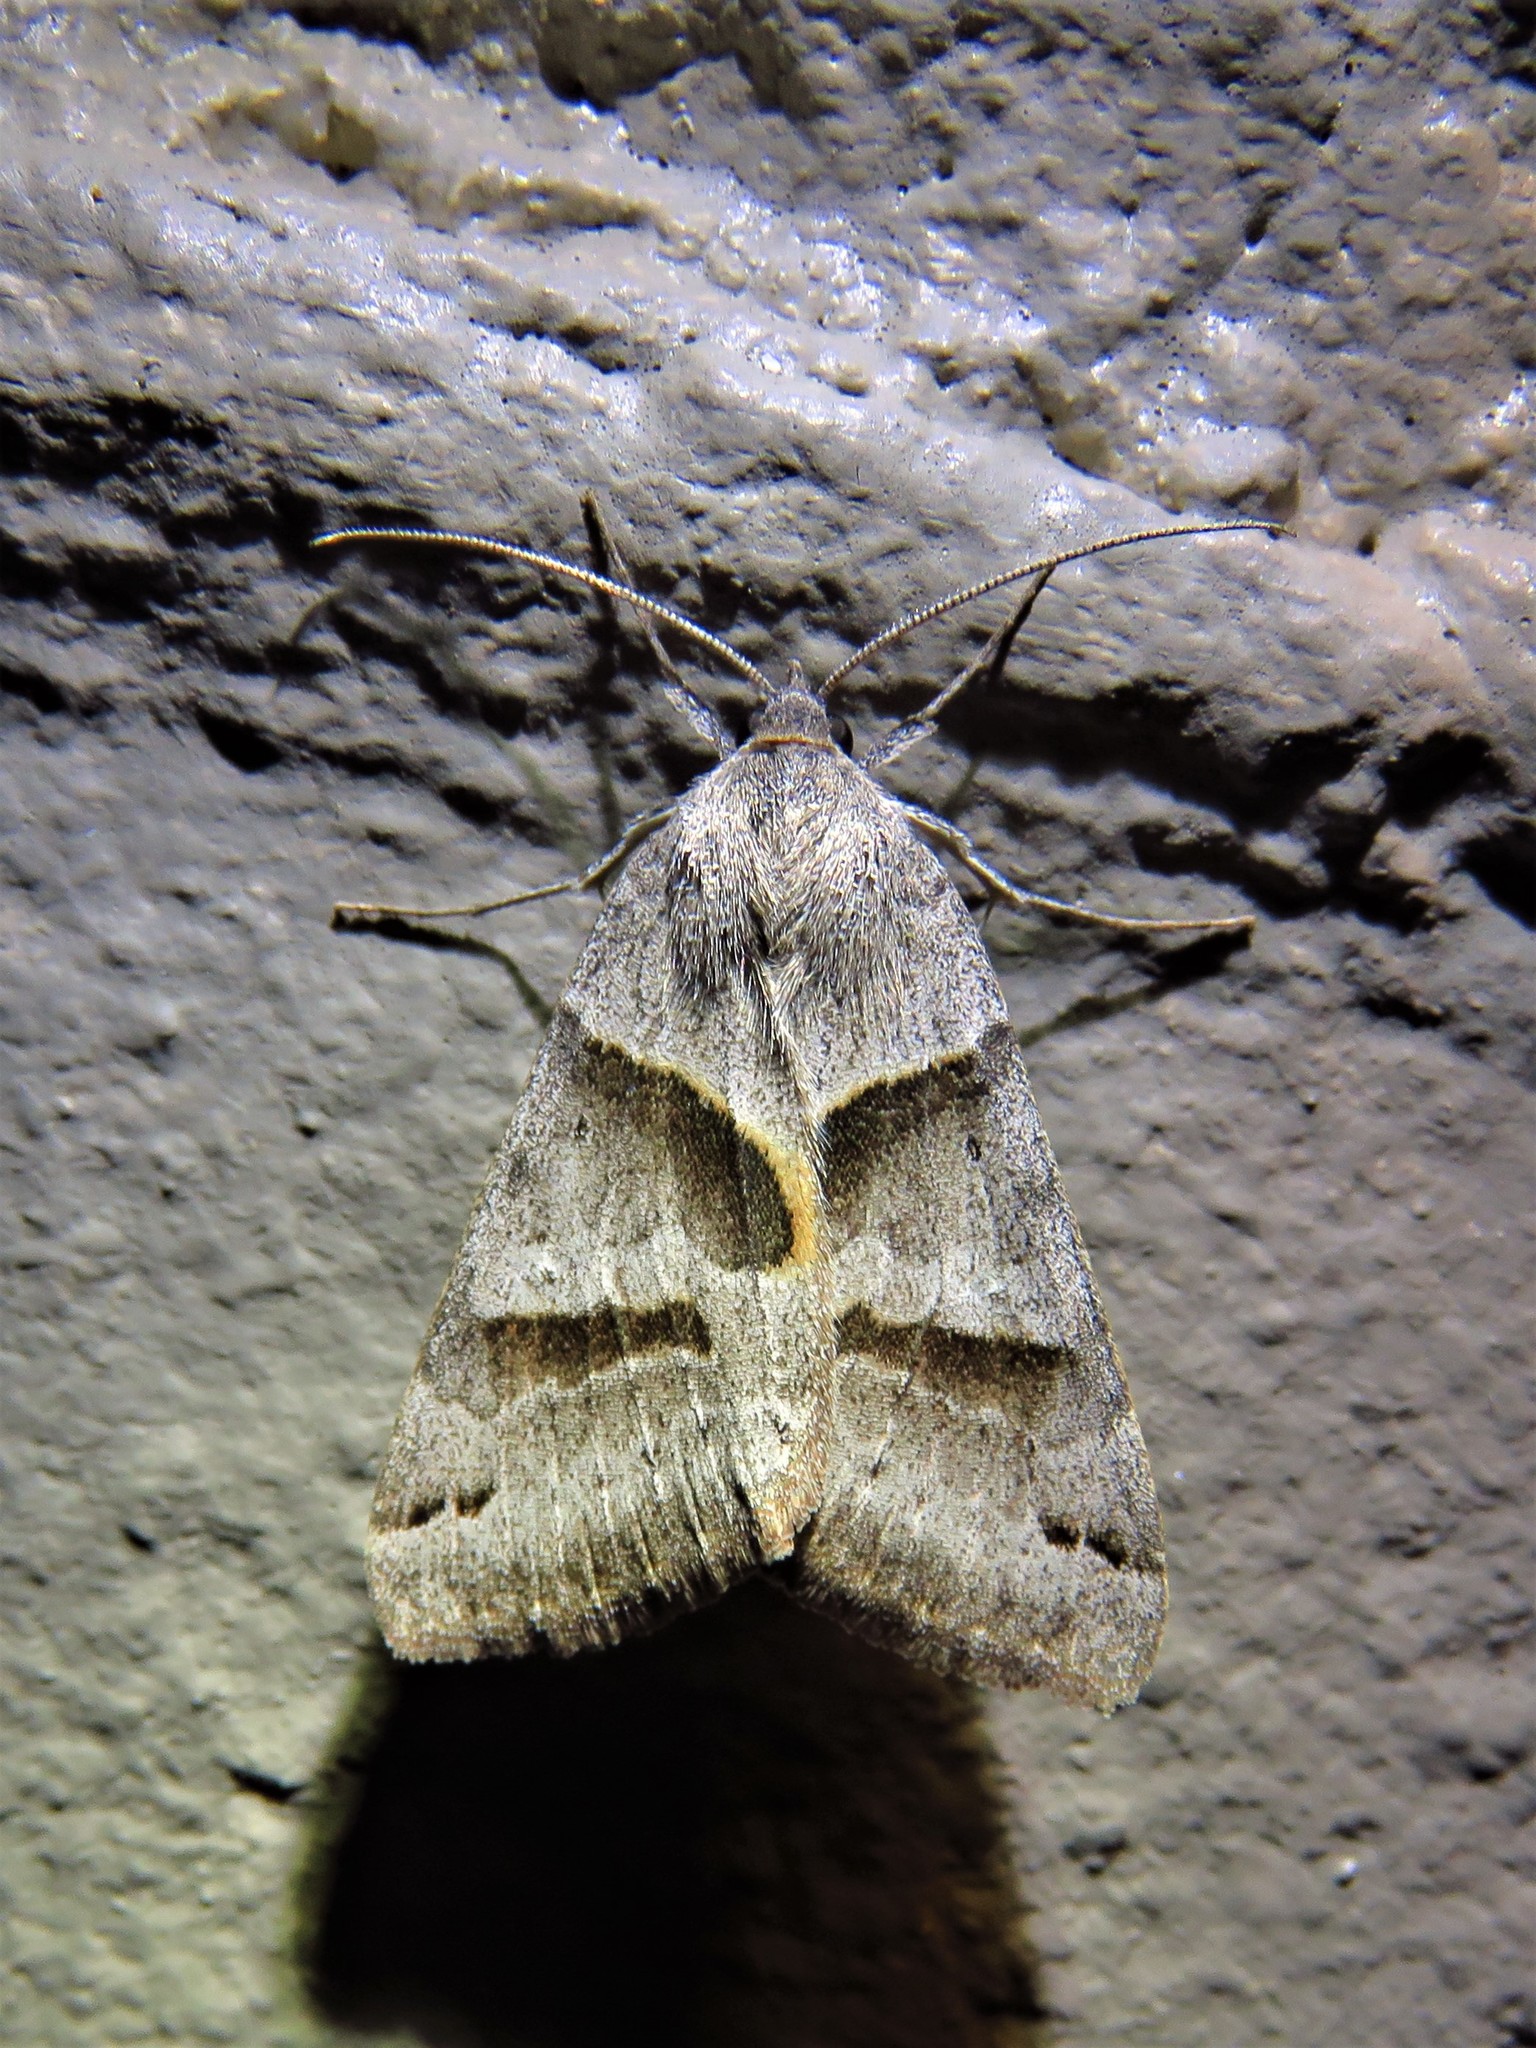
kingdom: Animalia
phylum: Arthropoda
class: Insecta
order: Lepidoptera
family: Erebidae
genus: Caenurgina
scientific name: Caenurgina erechtea
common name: Forage looper moth
